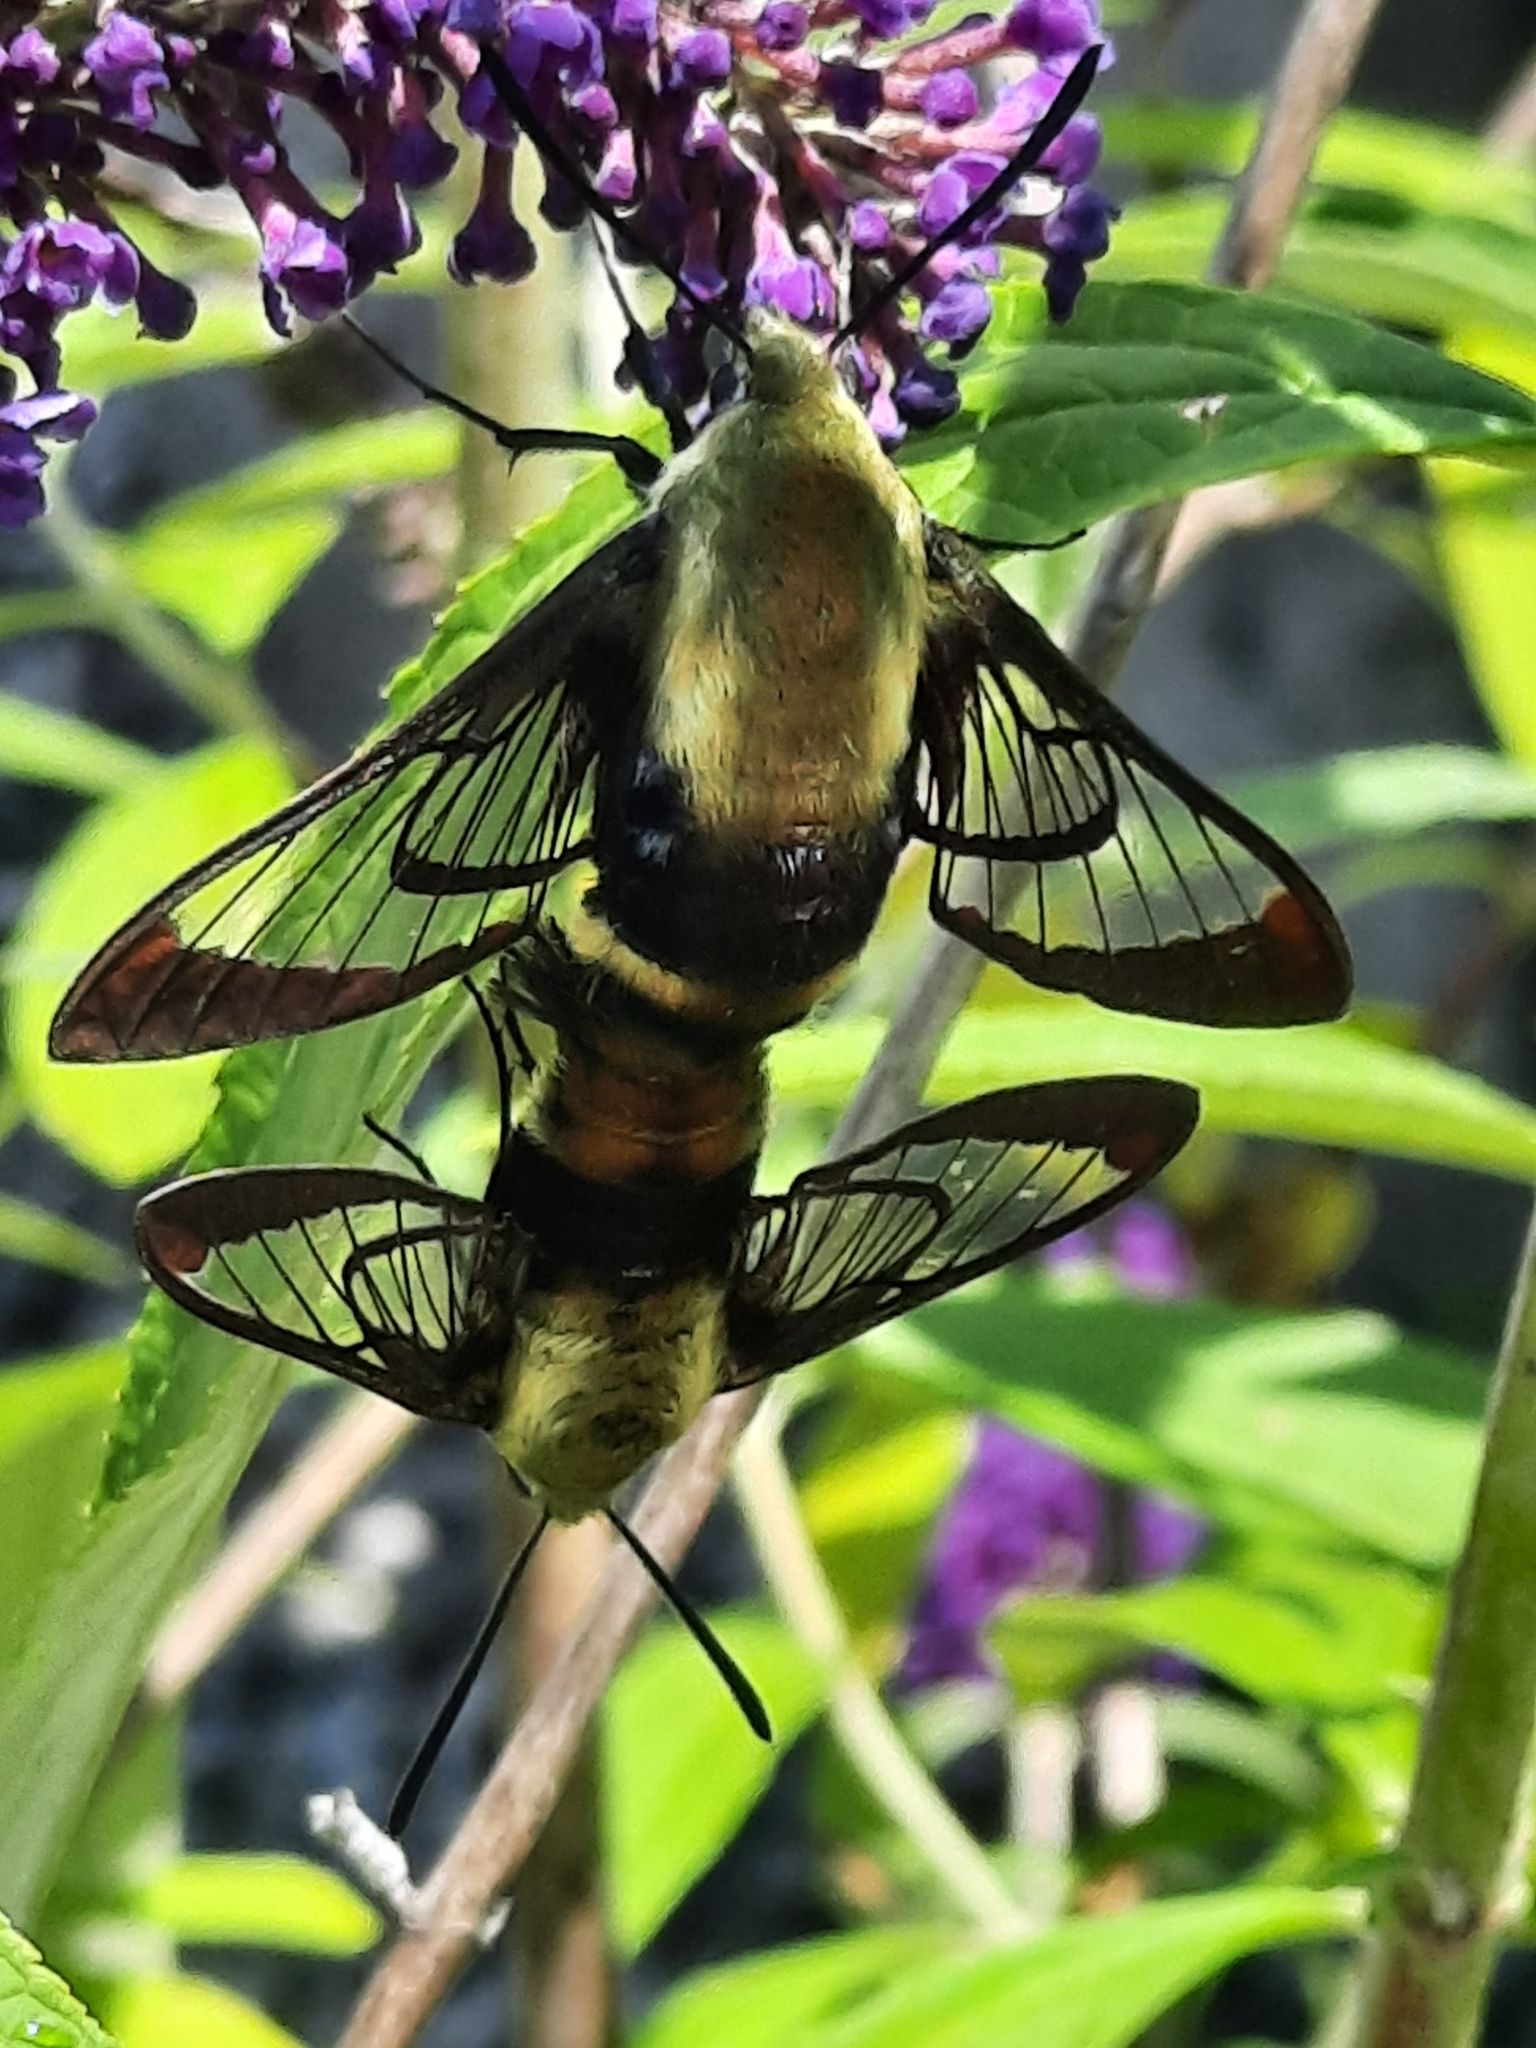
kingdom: Animalia
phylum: Arthropoda
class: Insecta
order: Lepidoptera
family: Sphingidae
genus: Hemaris
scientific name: Hemaris diffinis
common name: Bumblebee moth
